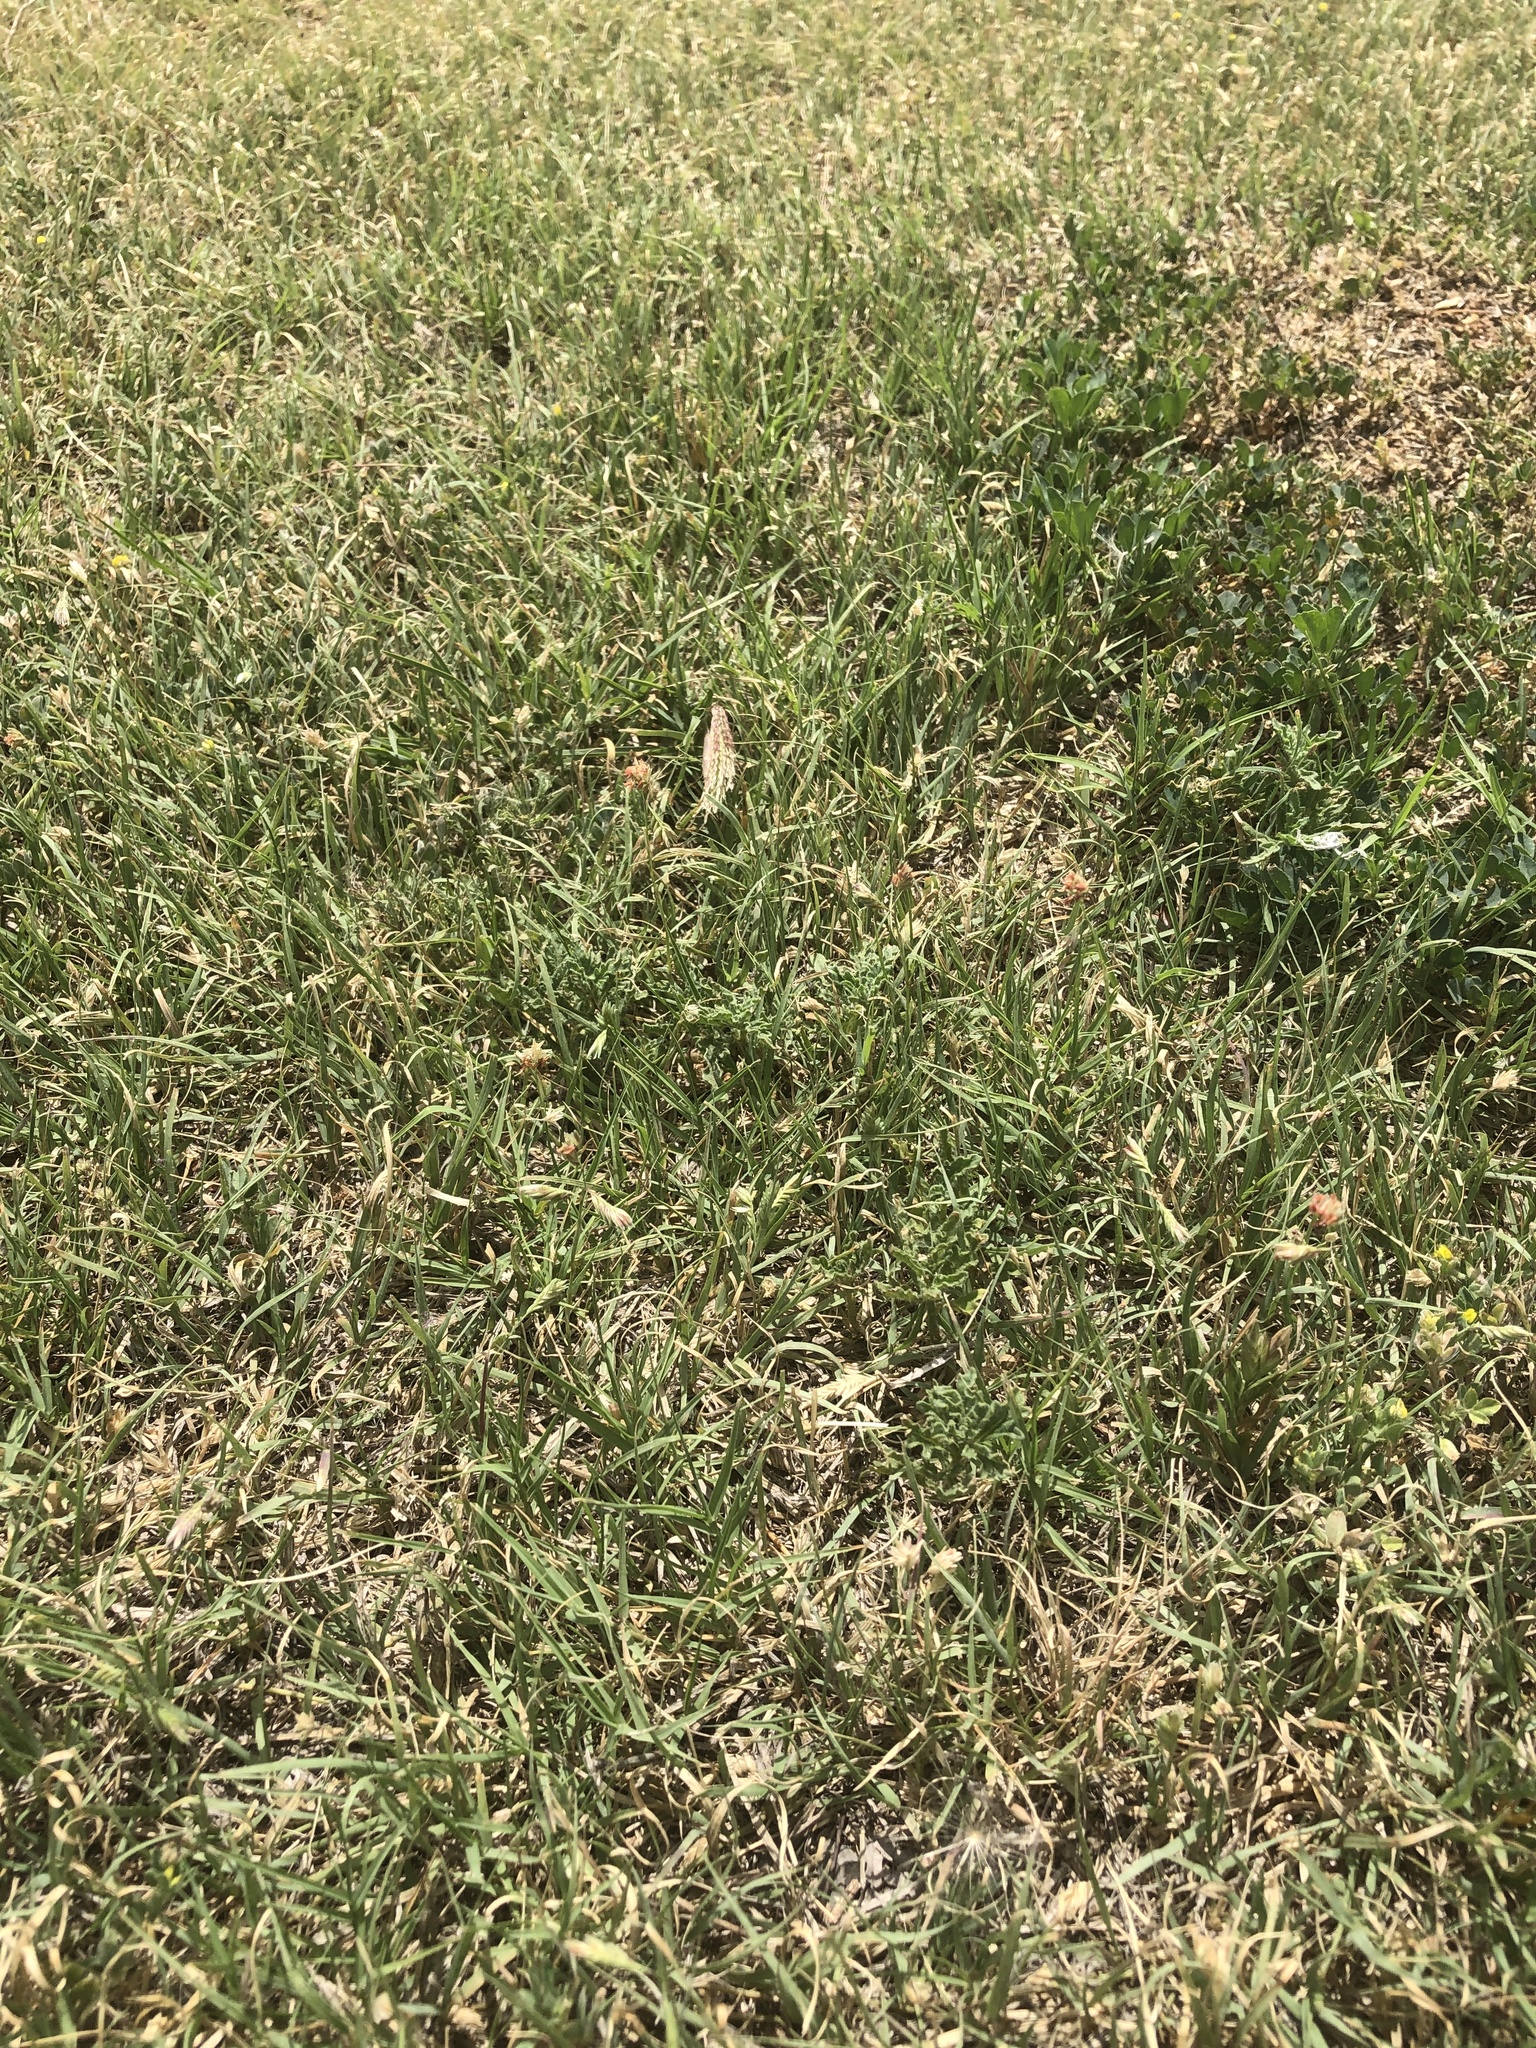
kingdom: Plantae
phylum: Tracheophyta
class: Liliopsida
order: Poales
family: Poaceae
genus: Bouteloua
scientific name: Bouteloua dactyloides
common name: Buffalo grass
